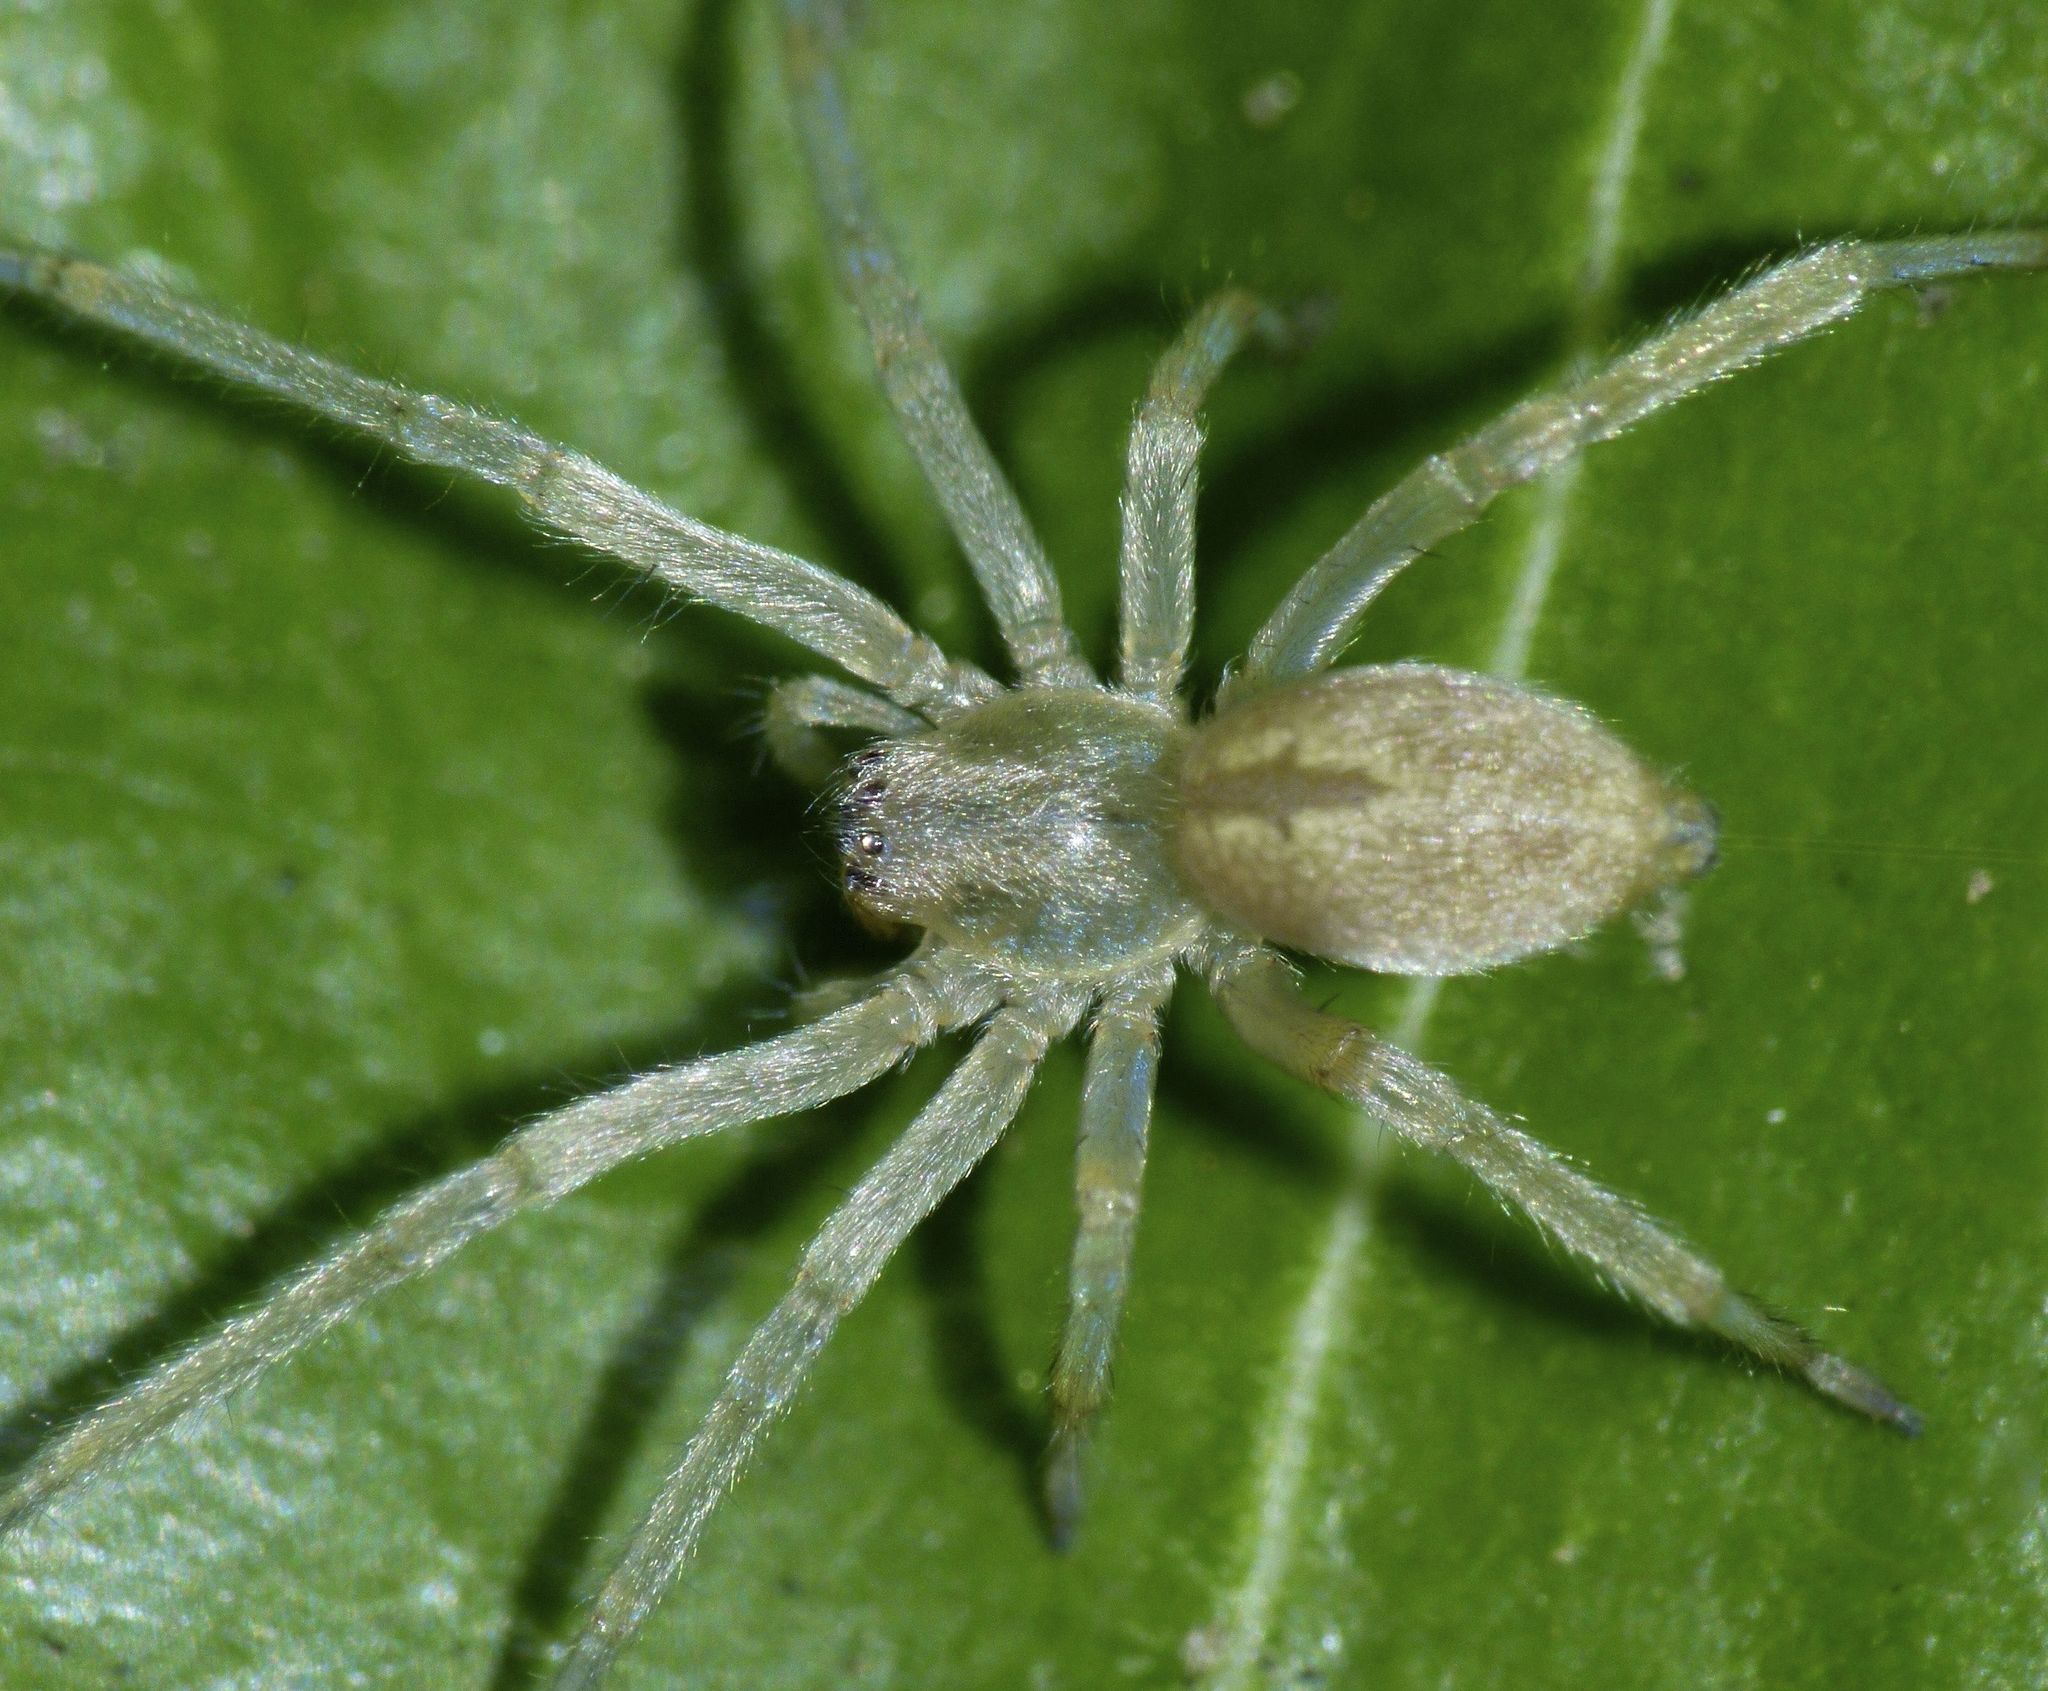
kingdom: Animalia
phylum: Arthropoda
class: Arachnida
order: Araneae
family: Cheiracanthiidae
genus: Cheiracanthium
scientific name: Cheiracanthium inclusum
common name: Long-legged sac spiders
